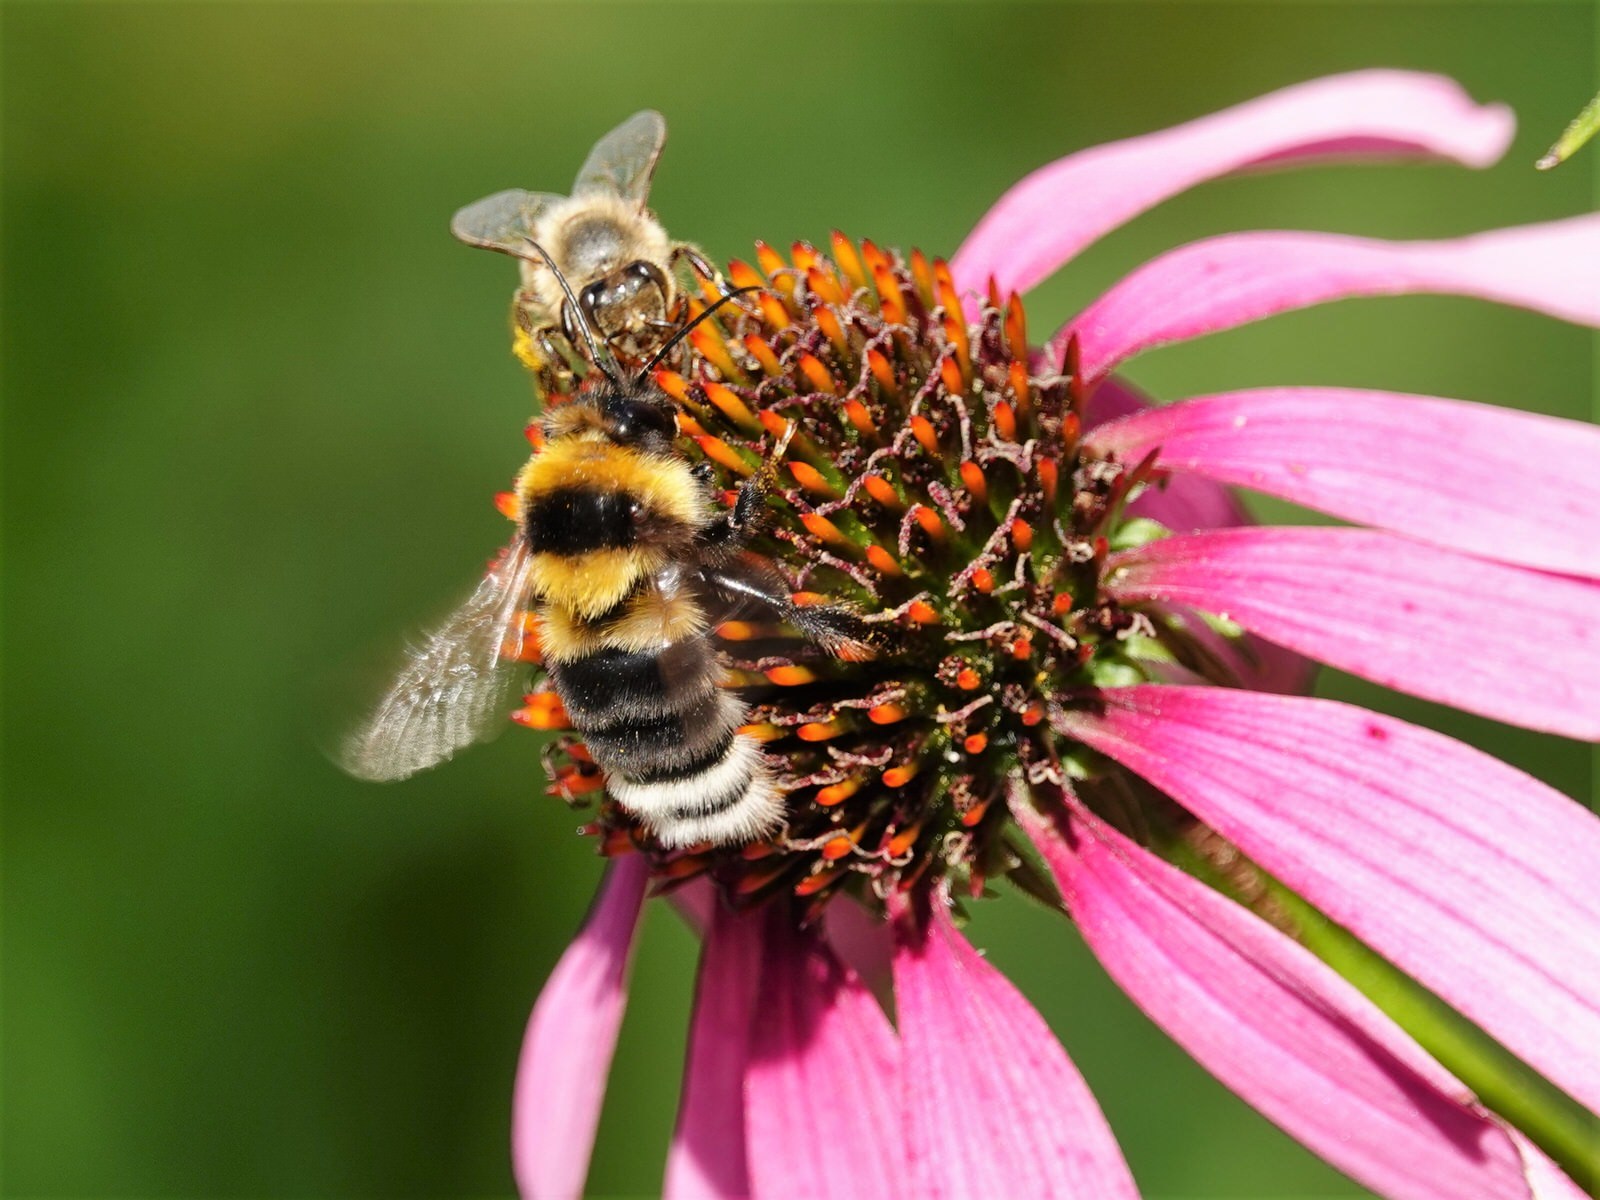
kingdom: Animalia
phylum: Arthropoda
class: Insecta
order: Hymenoptera
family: Apidae
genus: Bombus
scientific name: Bombus ruderatus
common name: Large garden bumblebee
